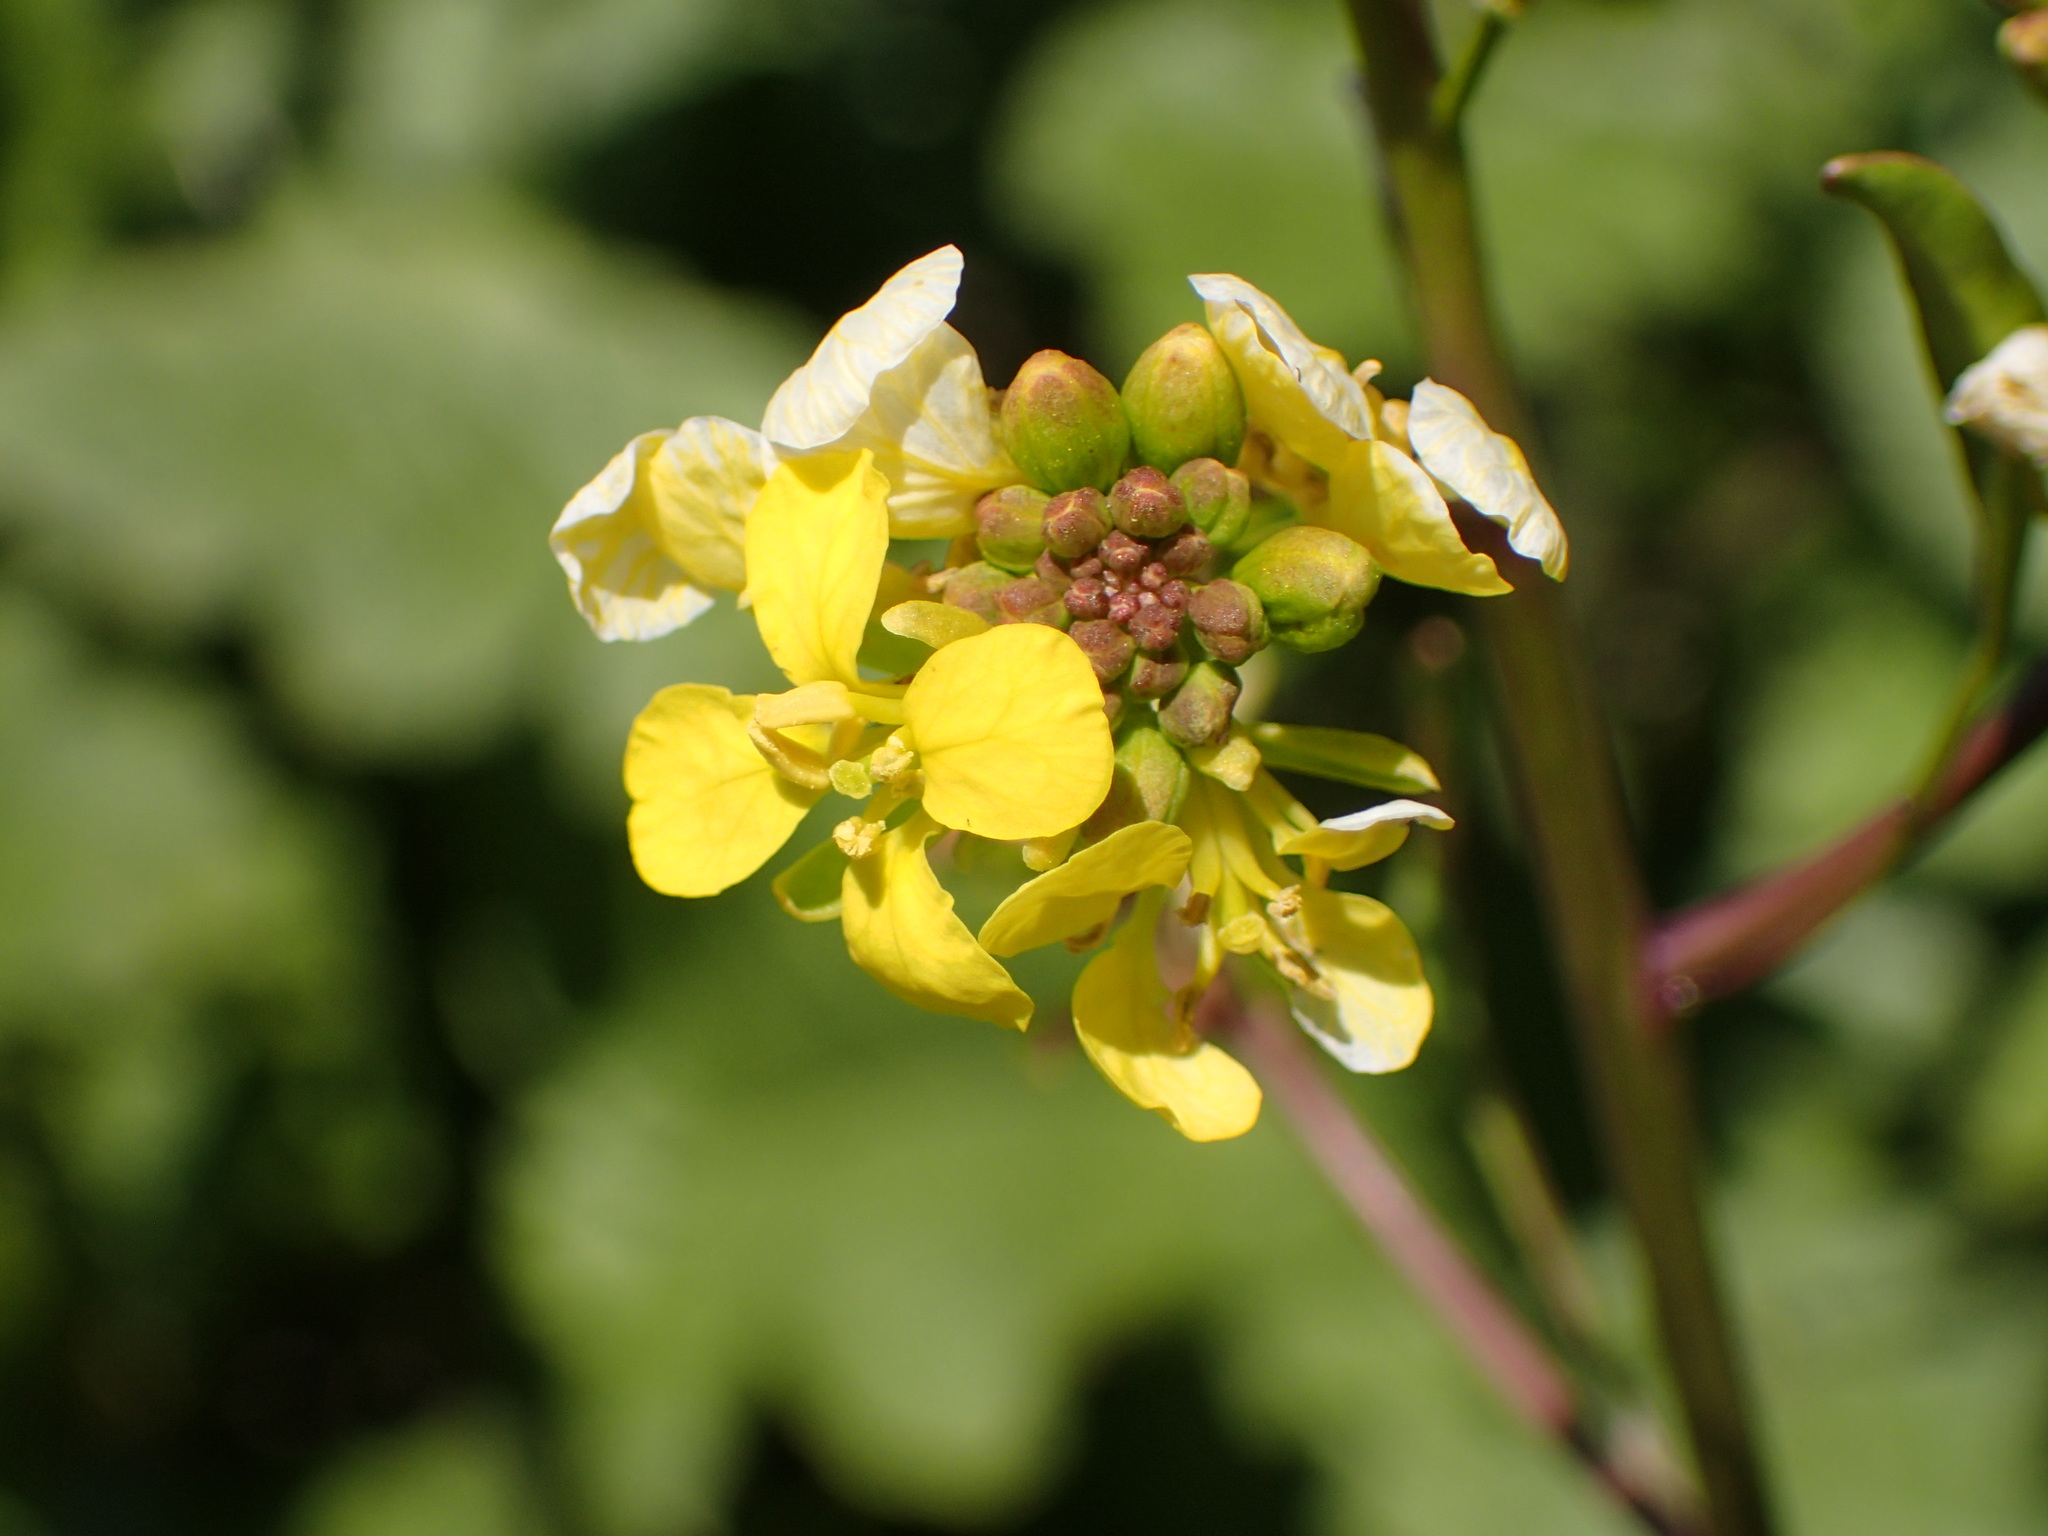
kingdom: Plantae
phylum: Tracheophyta
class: Magnoliopsida
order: Brassicales
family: Brassicaceae
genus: Brassica
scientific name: Brassica nigra
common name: Black mustard
